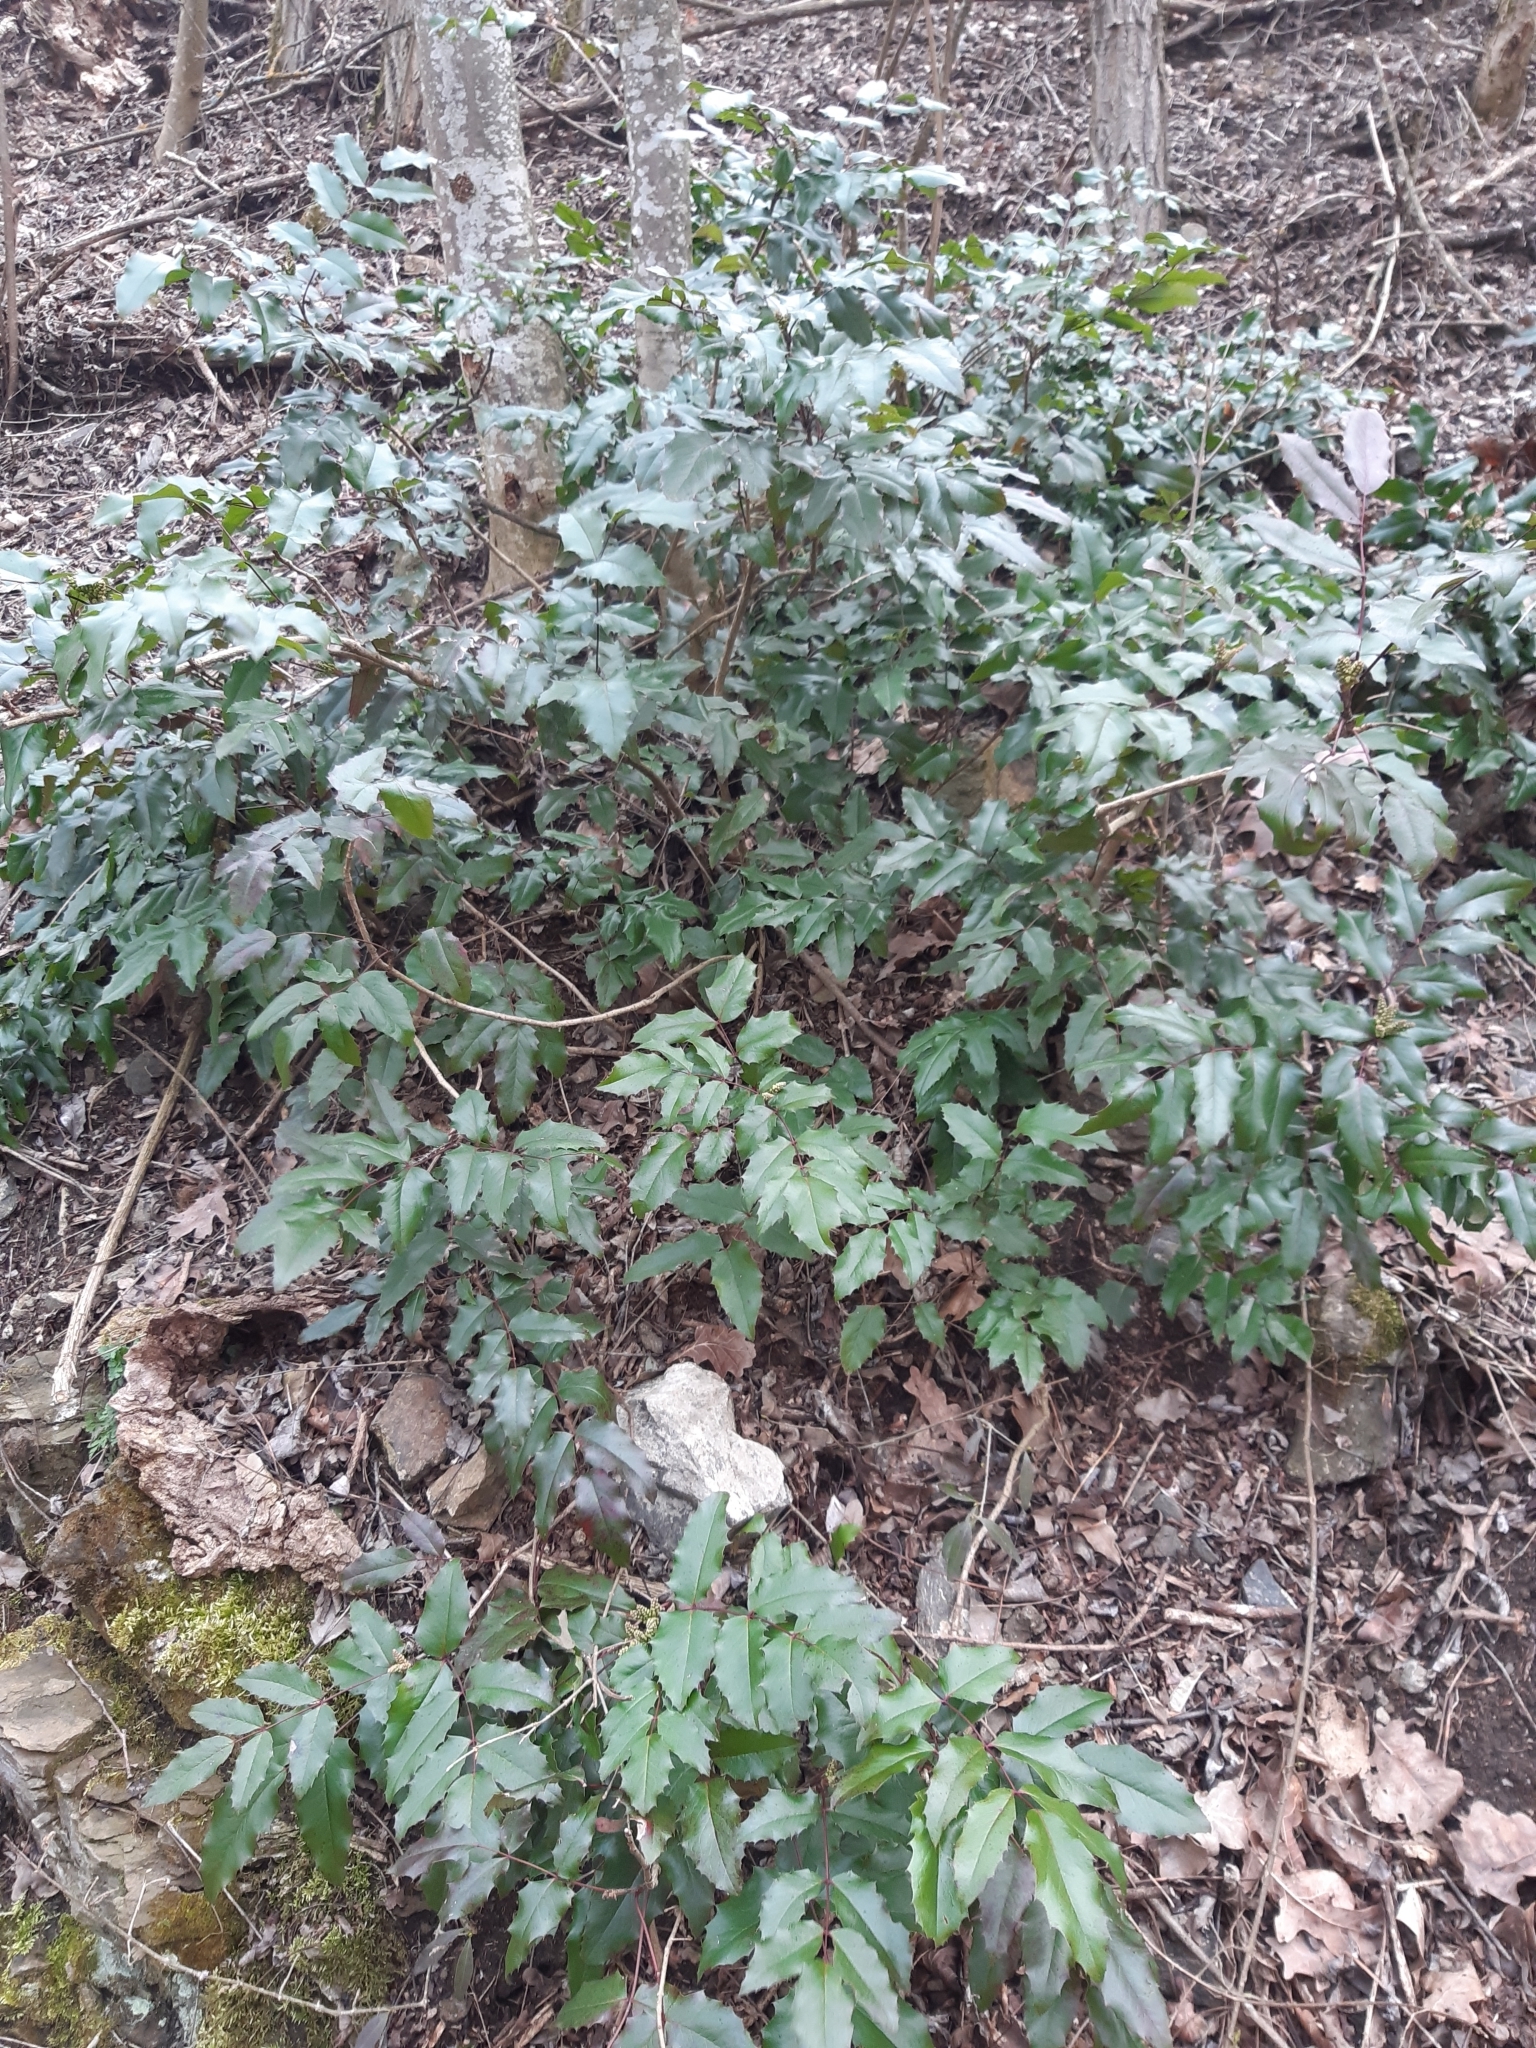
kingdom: Plantae
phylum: Tracheophyta
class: Magnoliopsida
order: Ranunculales
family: Berberidaceae
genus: Mahonia
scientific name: Mahonia aquifolium
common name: Oregon-grape
